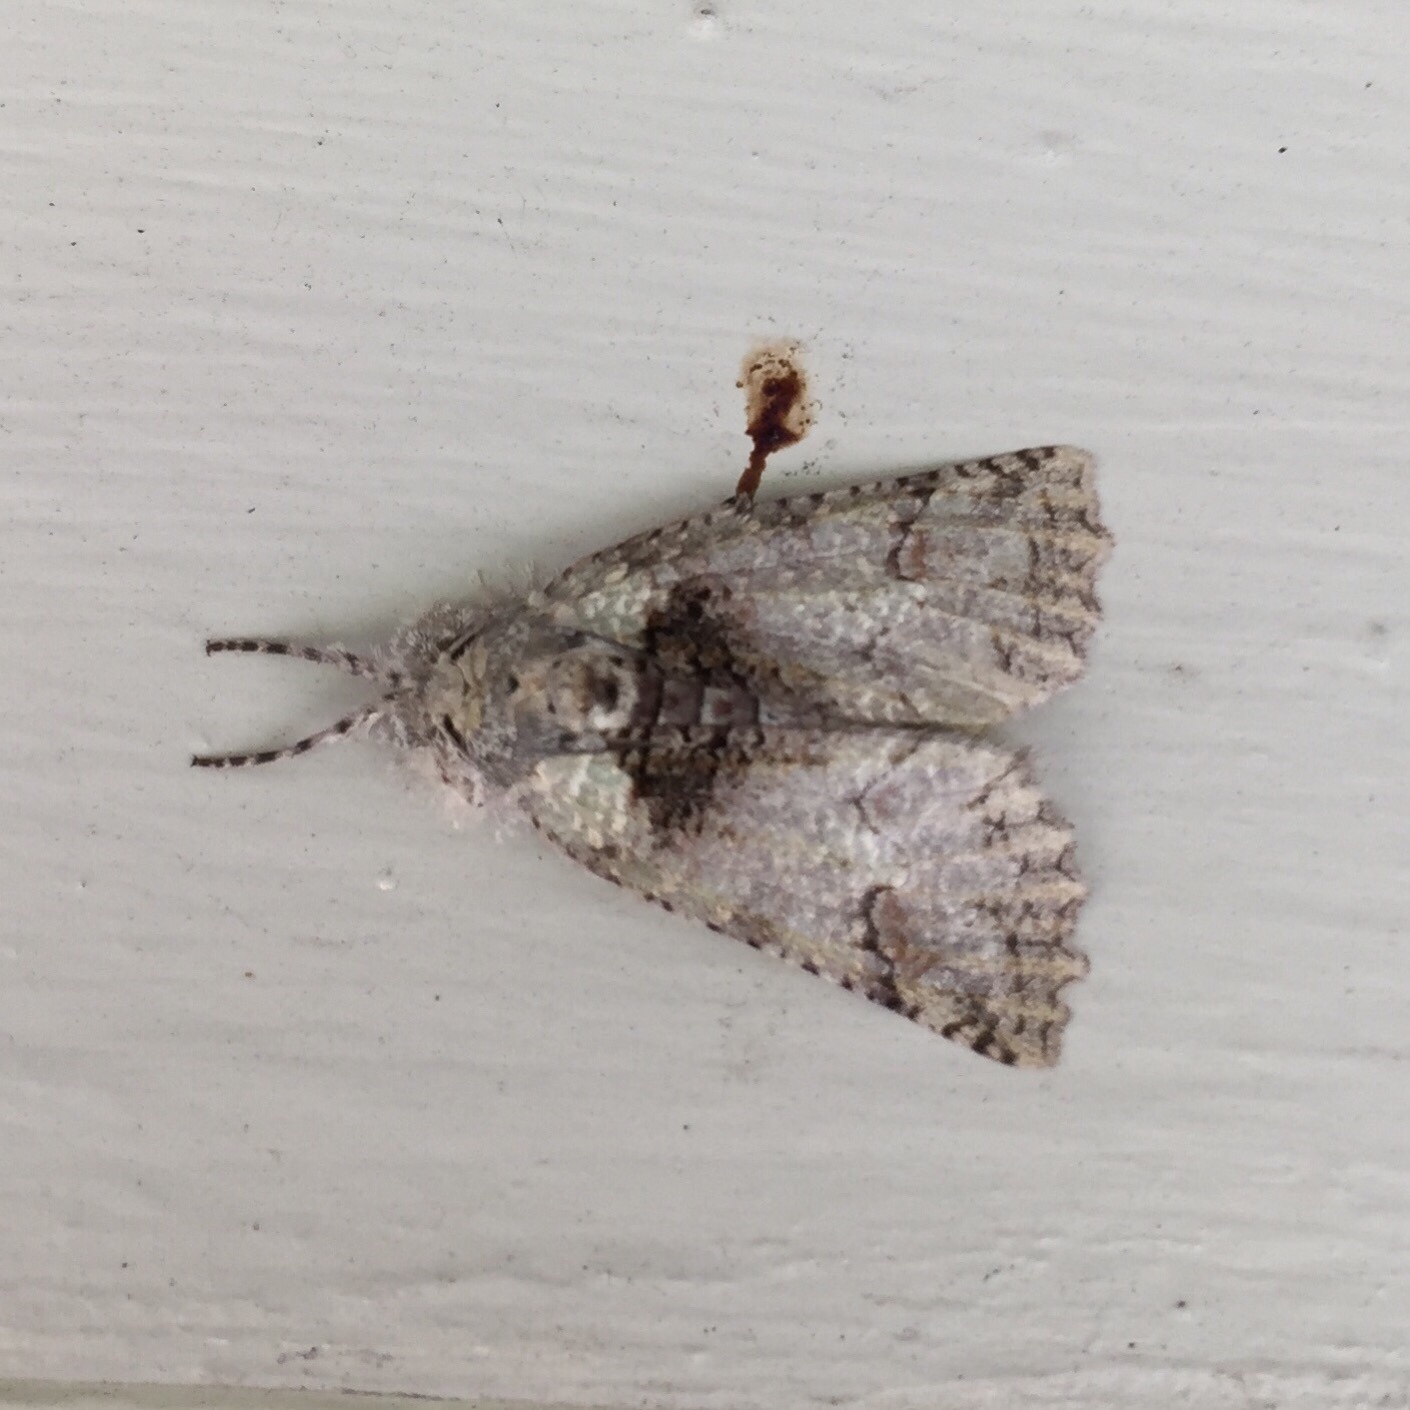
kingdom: Animalia
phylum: Arthropoda
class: Insecta
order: Lepidoptera
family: Geometridae
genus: Declana
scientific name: Declana floccosa
